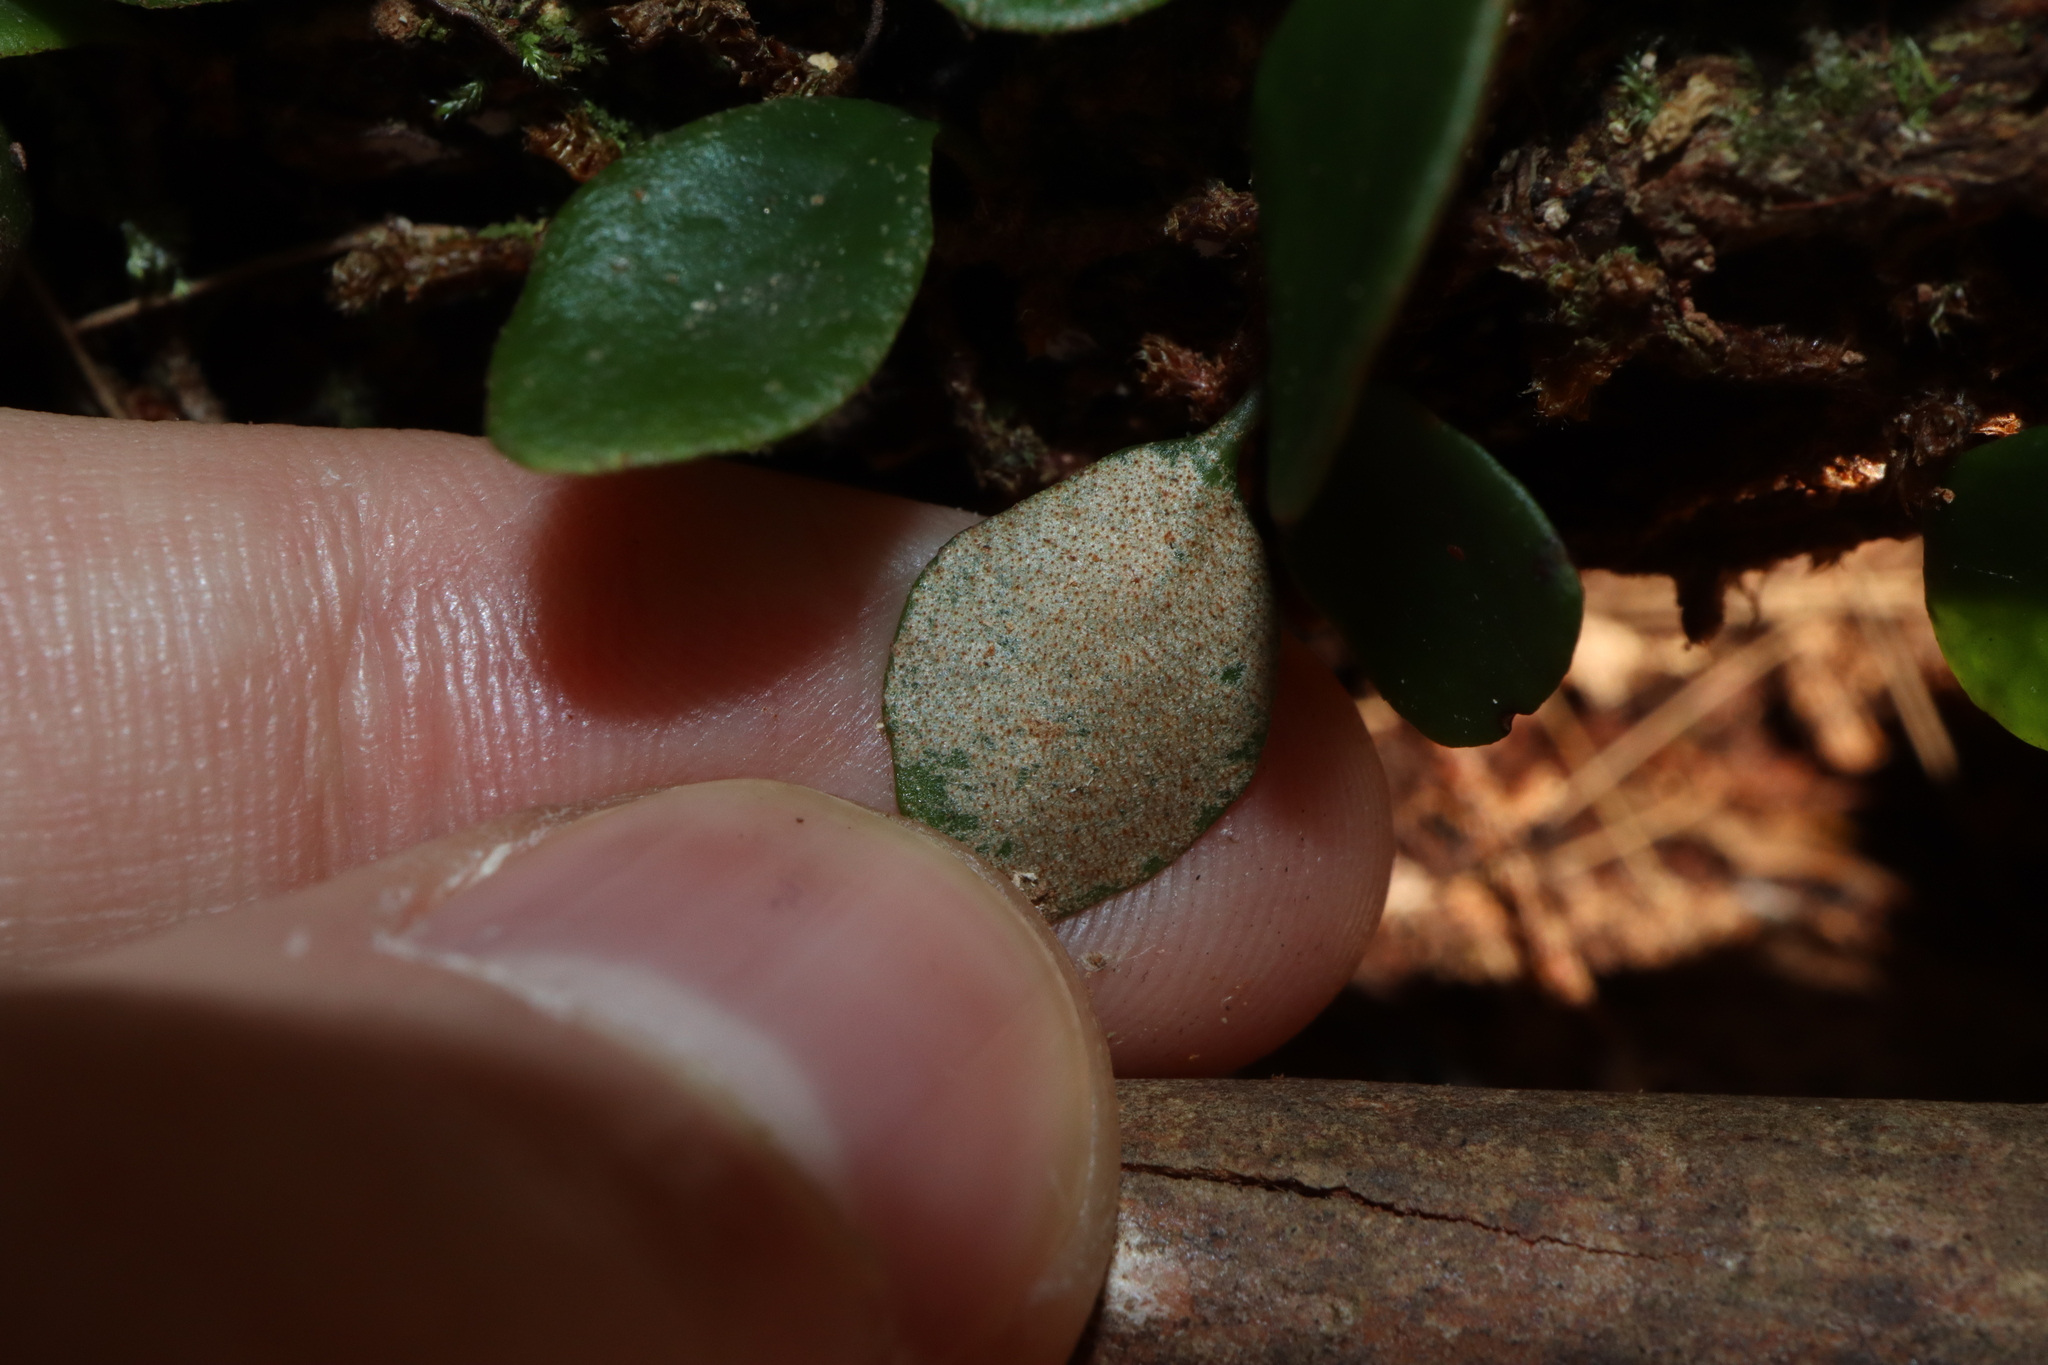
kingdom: Plantae
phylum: Tracheophyta
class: Polypodiopsida
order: Polypodiales
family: Polypodiaceae
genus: Pyrrosia
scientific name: Pyrrosia rupestris
